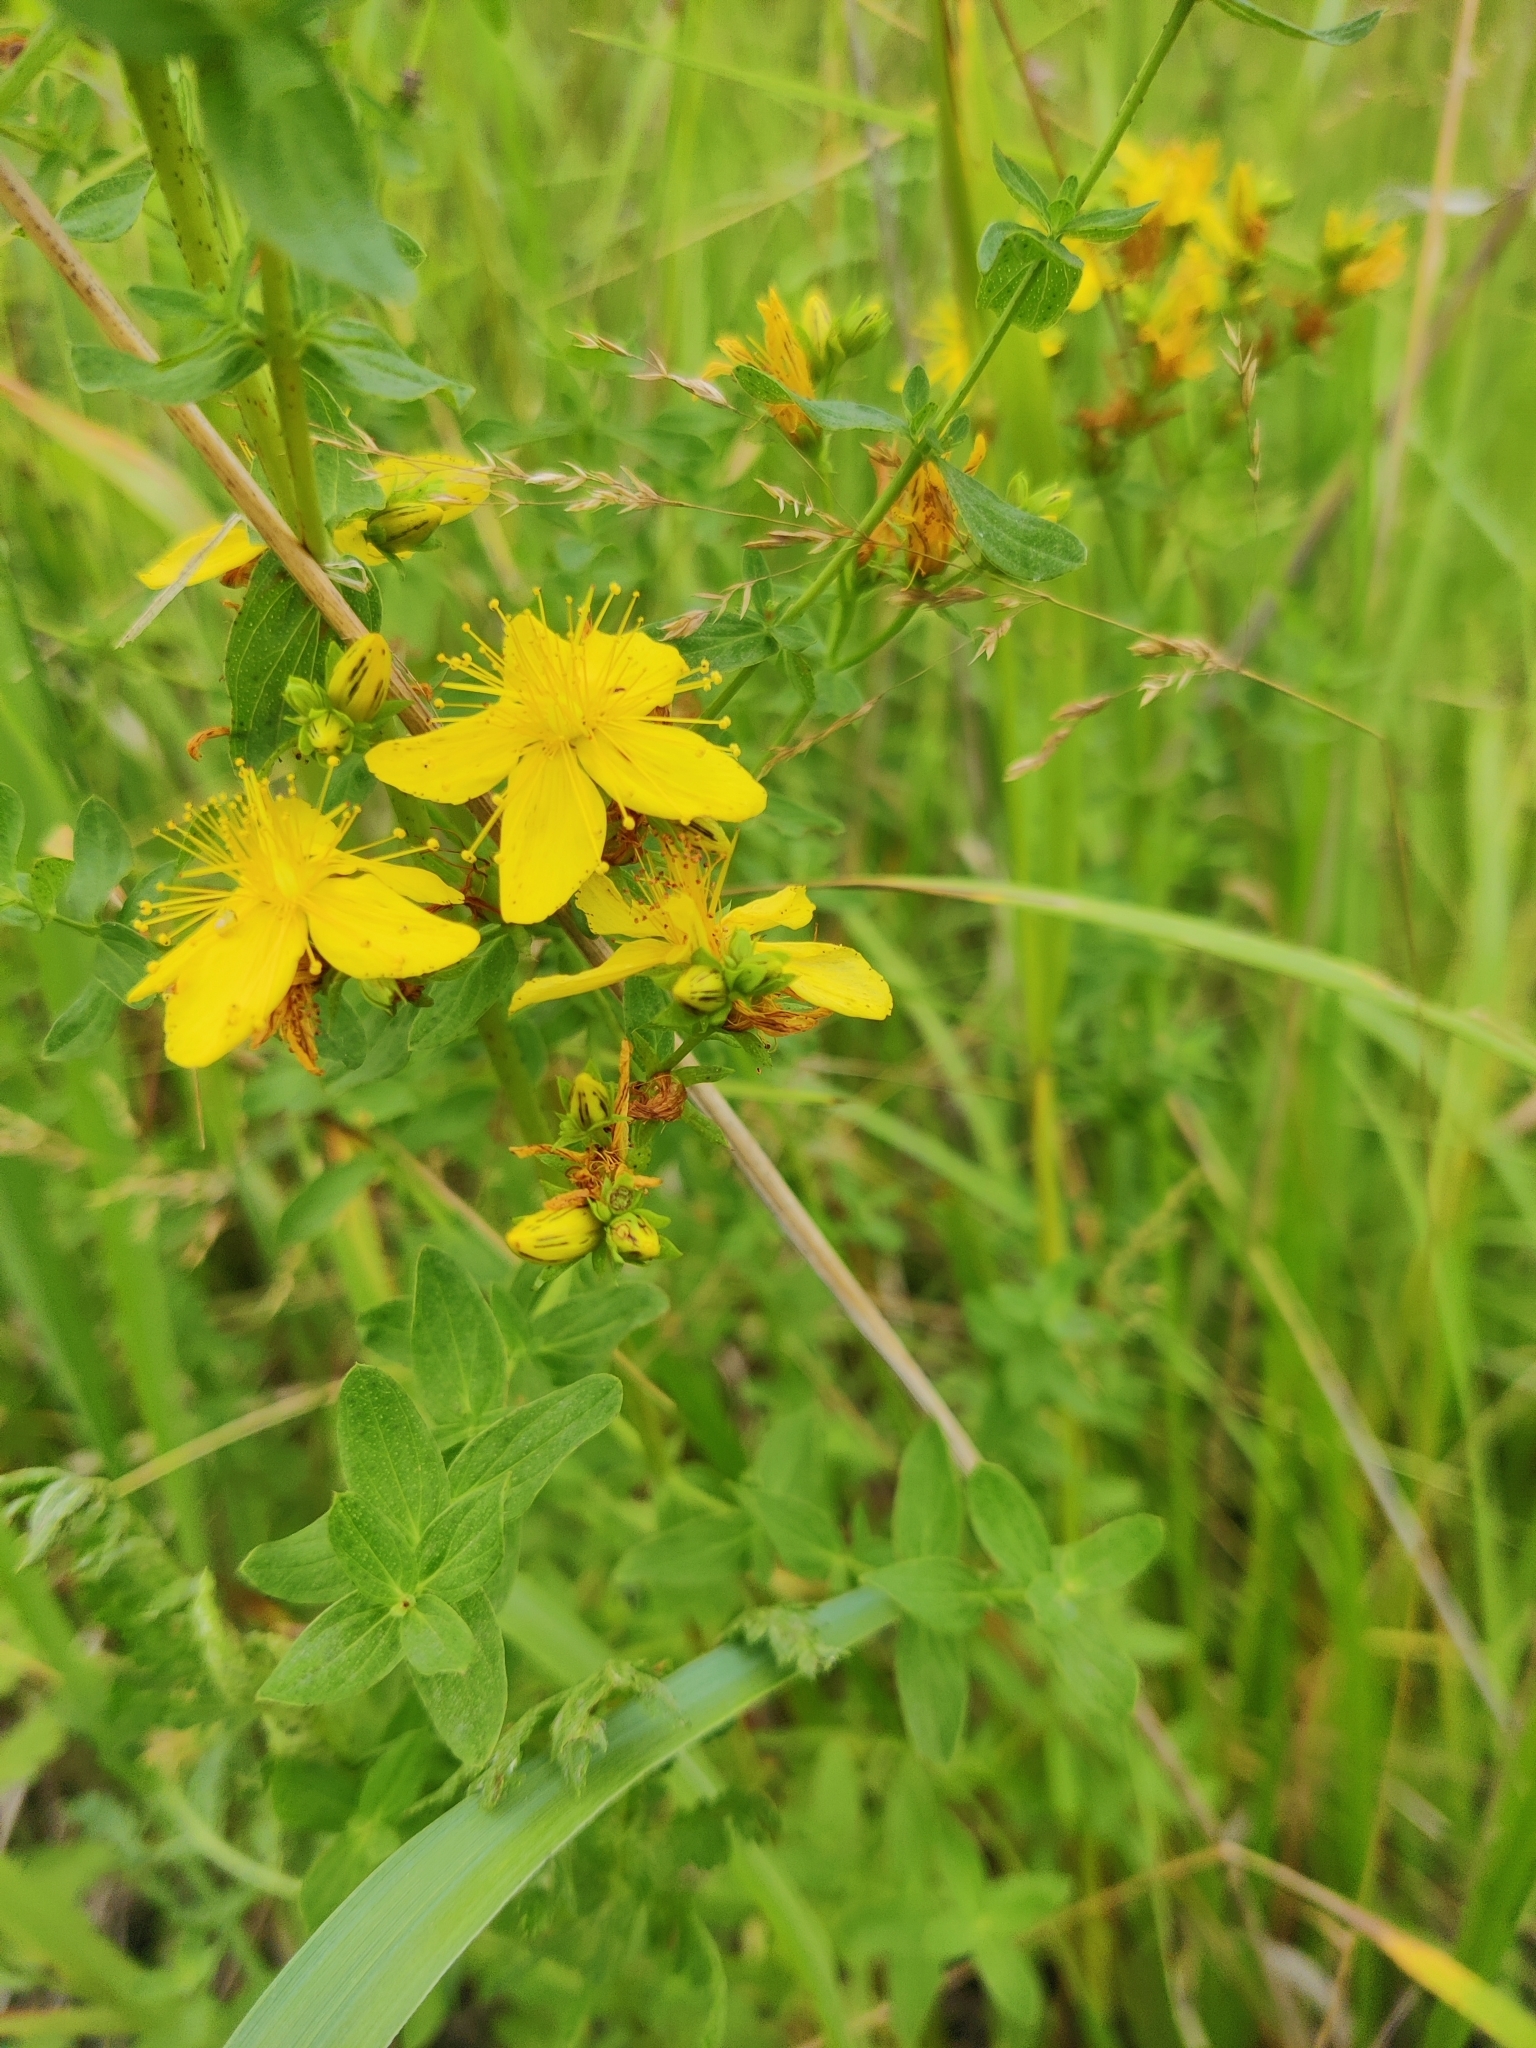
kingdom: Plantae
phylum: Tracheophyta
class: Magnoliopsida
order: Malpighiales
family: Hypericaceae
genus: Hypericum
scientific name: Hypericum perforatum
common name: Common st. johnswort
